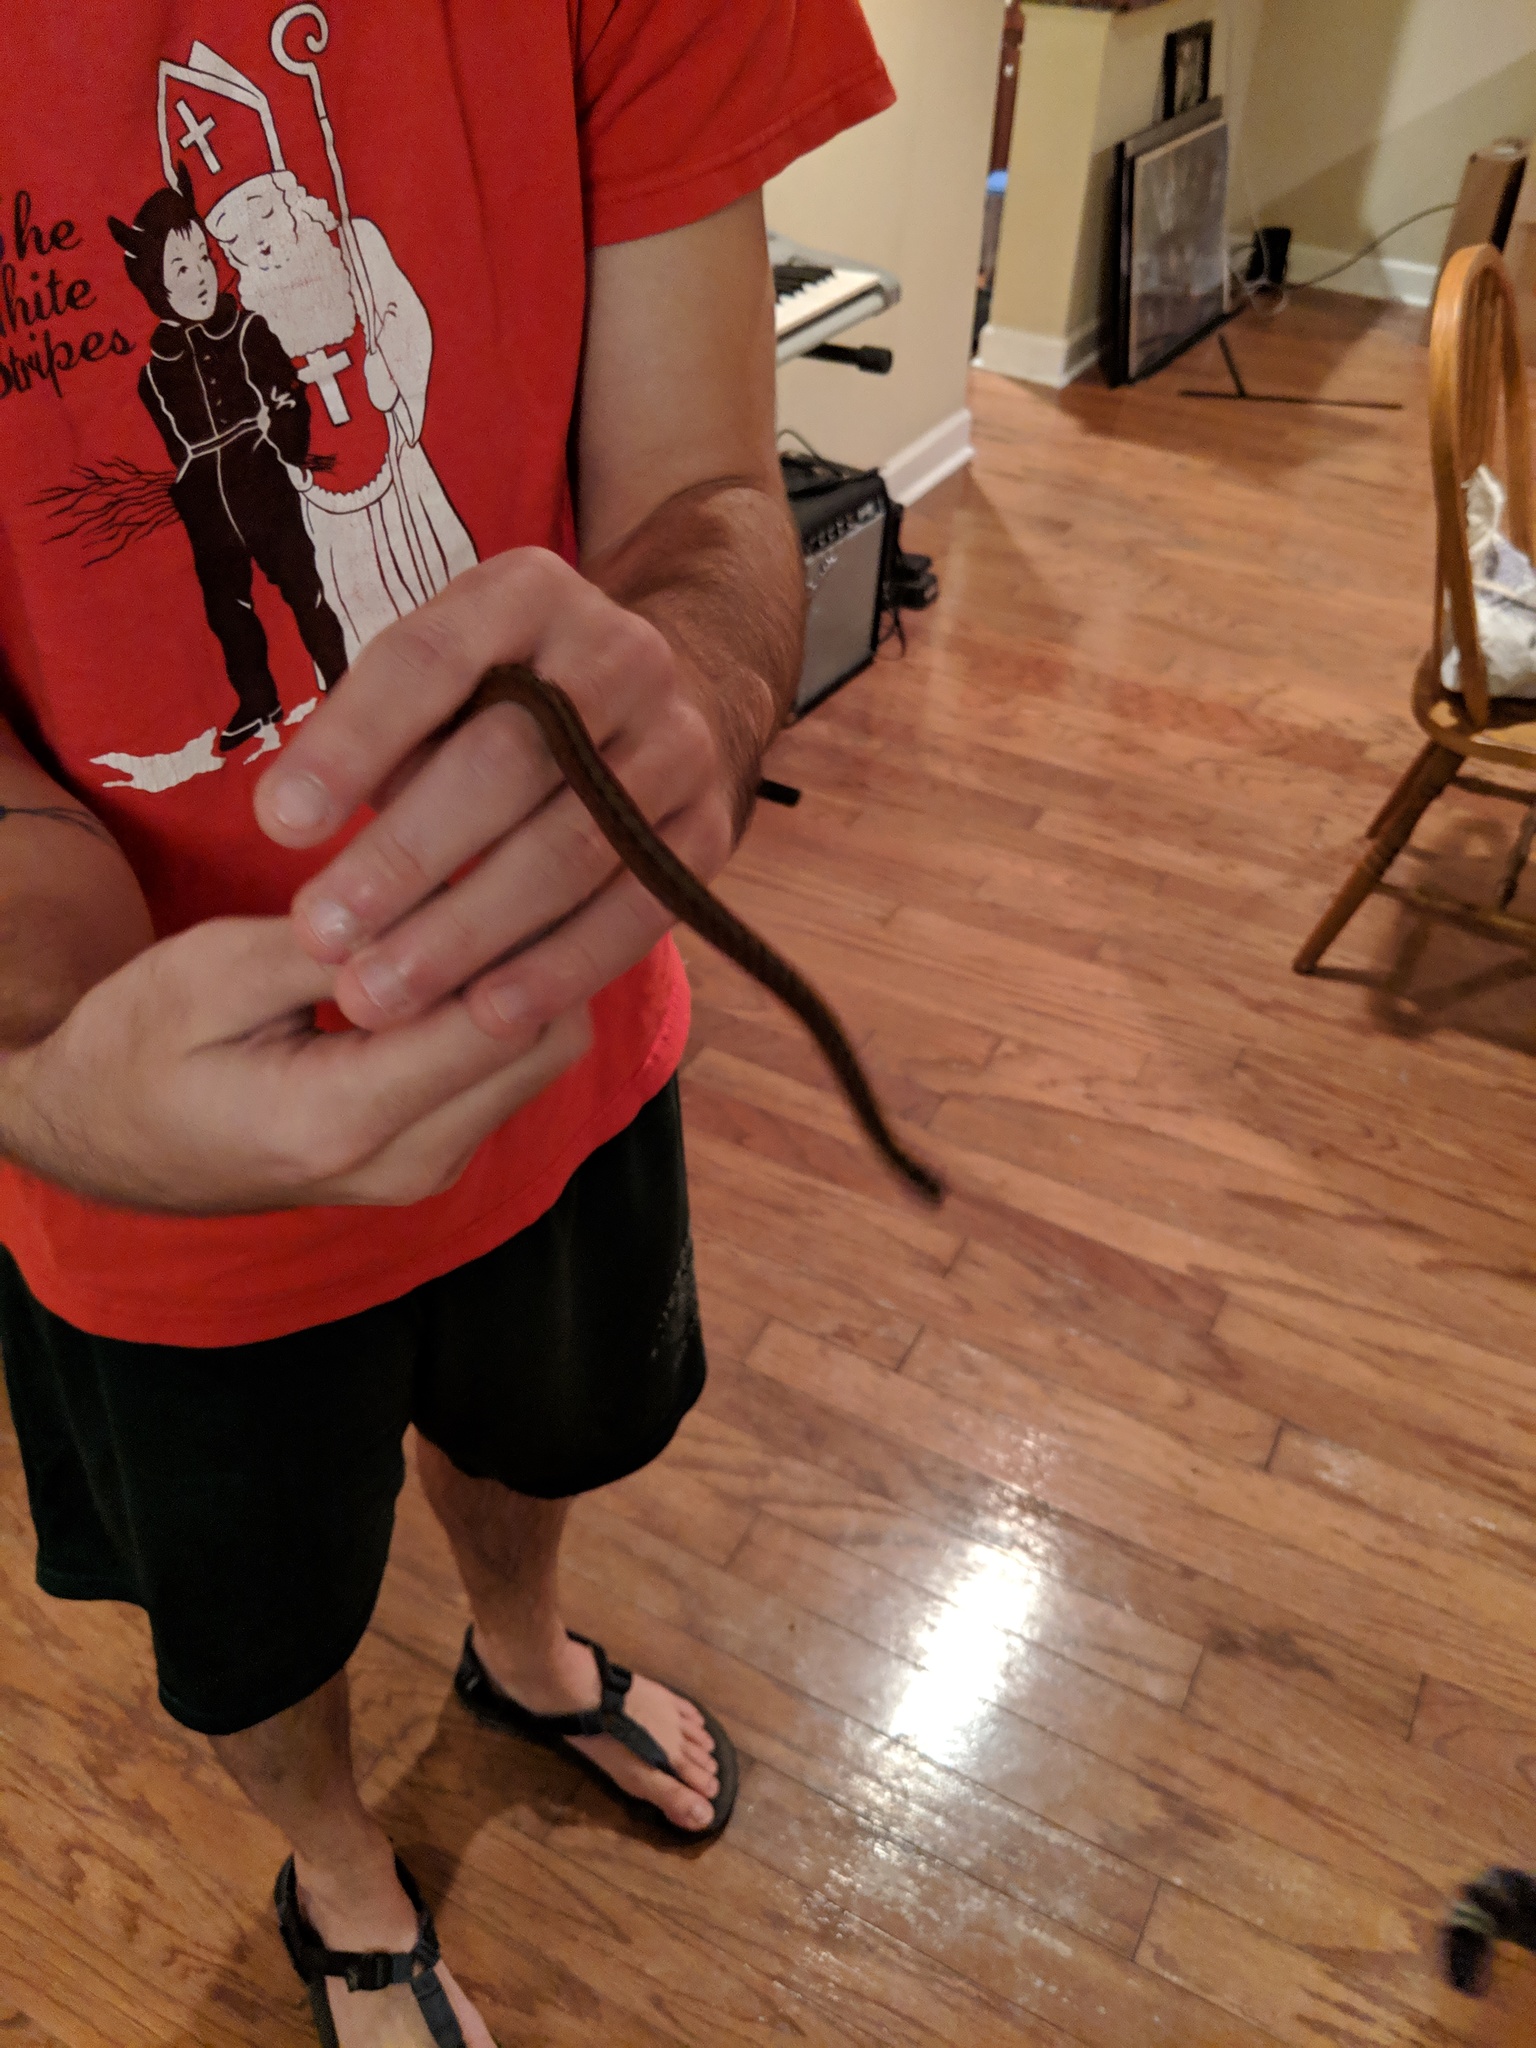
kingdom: Animalia
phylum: Chordata
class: Squamata
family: Colubridae
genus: Storeria
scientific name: Storeria dekayi
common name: (dekay’s) brown snake
